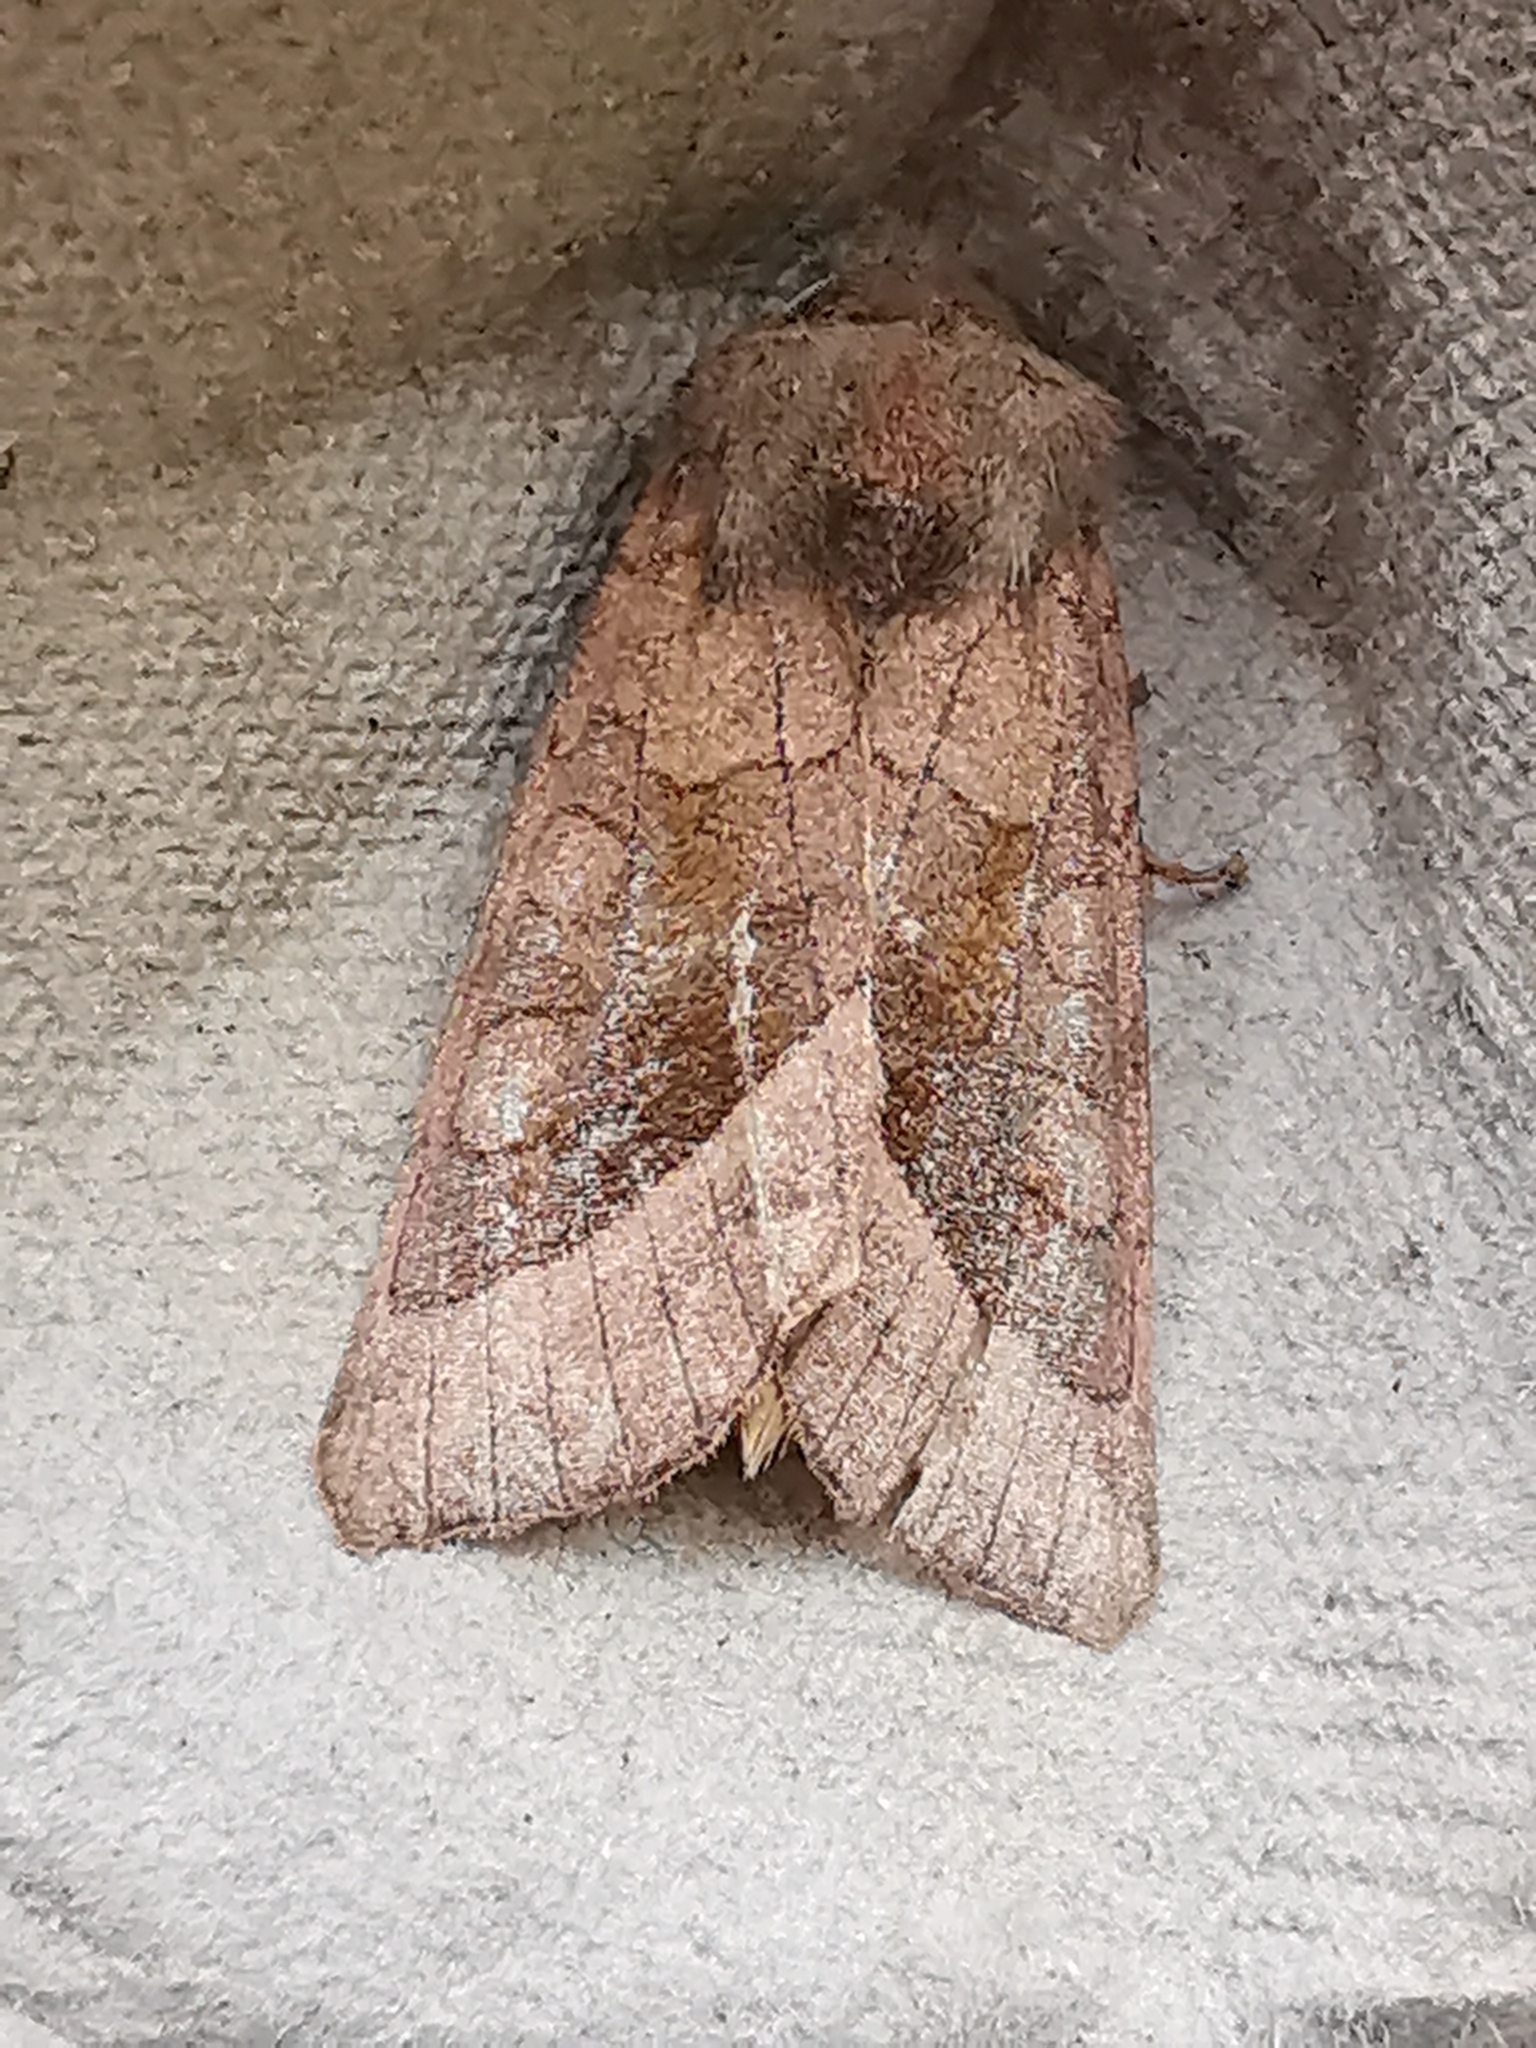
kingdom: Animalia
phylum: Arthropoda
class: Insecta
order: Lepidoptera
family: Noctuidae
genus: Hydraecia
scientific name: Hydraecia micacea
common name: Rosy rustic
